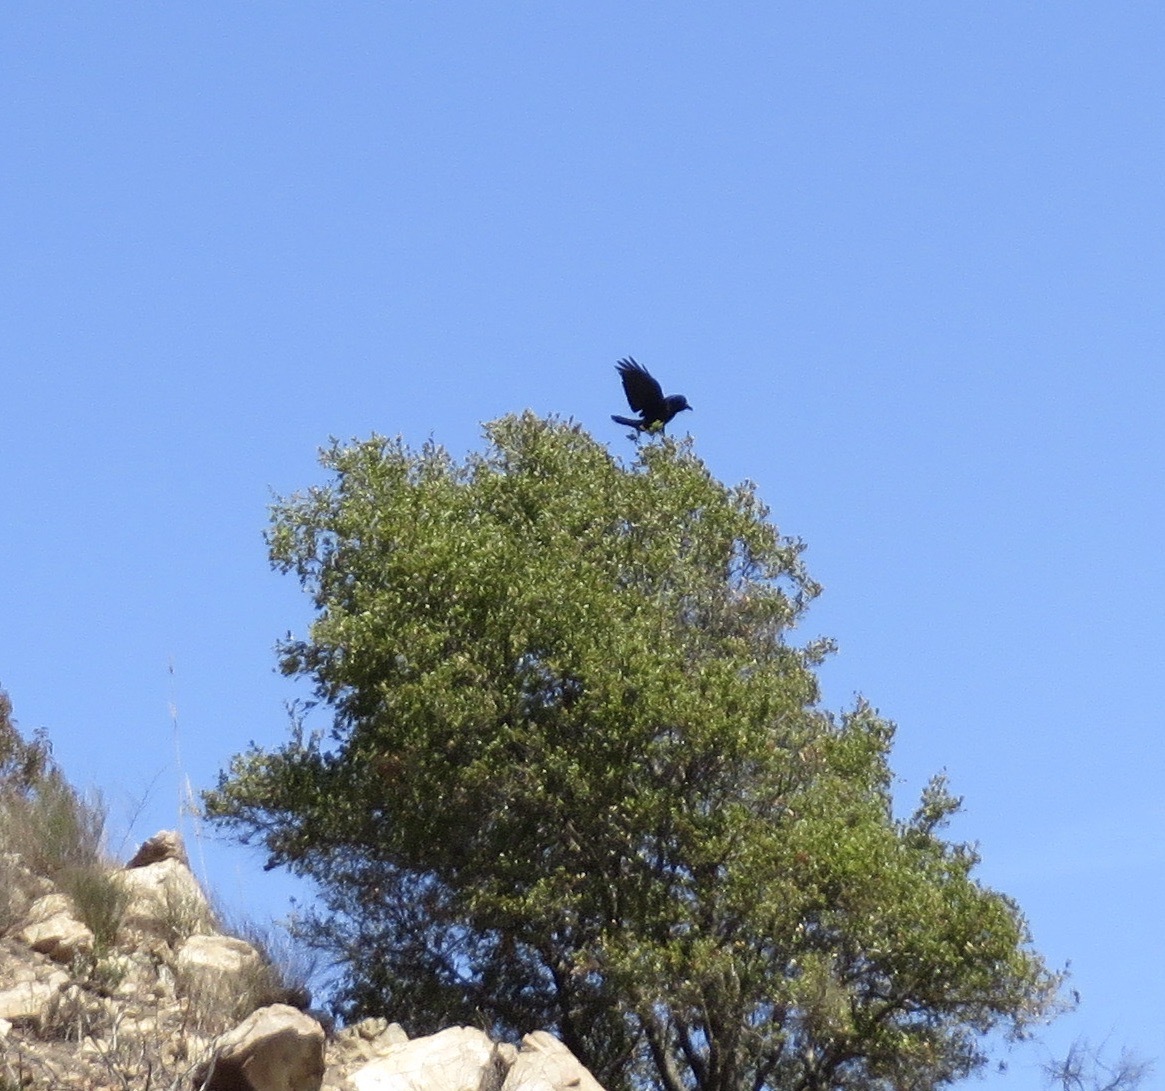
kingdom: Animalia
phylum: Chordata
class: Aves
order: Passeriformes
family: Corvidae
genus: Corvus
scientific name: Corvus corax
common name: Common raven
